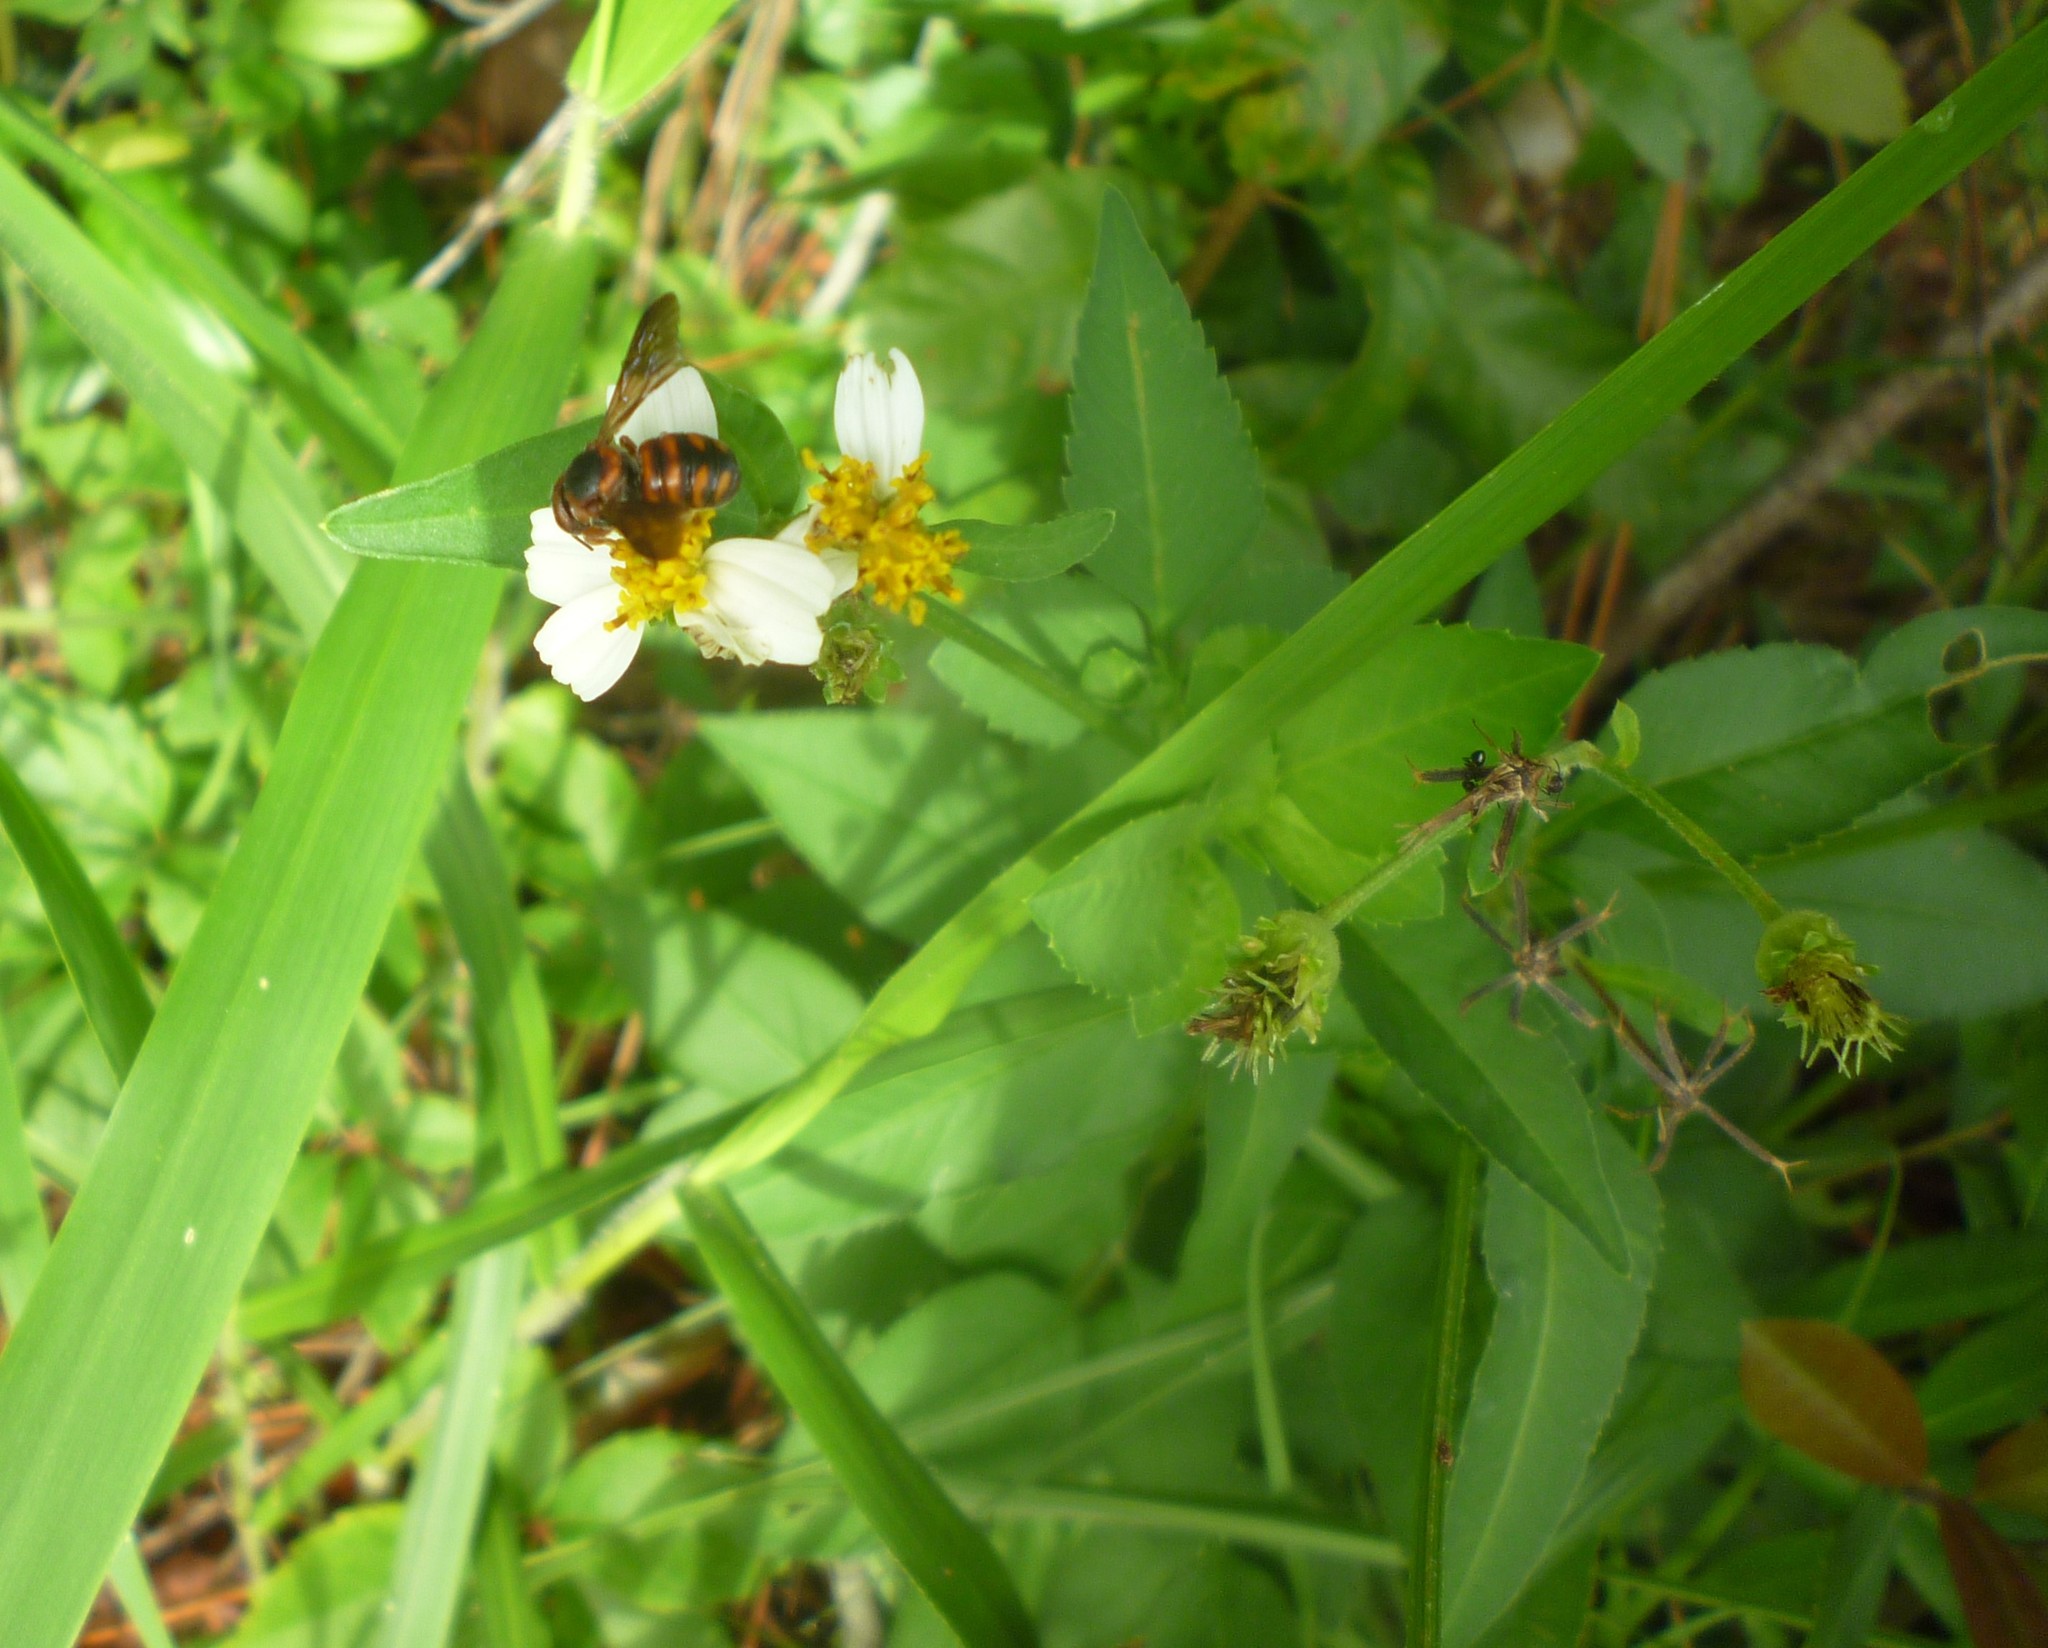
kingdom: Plantae
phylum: Tracheophyta
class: Magnoliopsida
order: Asterales
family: Asteraceae
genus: Bidens
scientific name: Bidens alba
